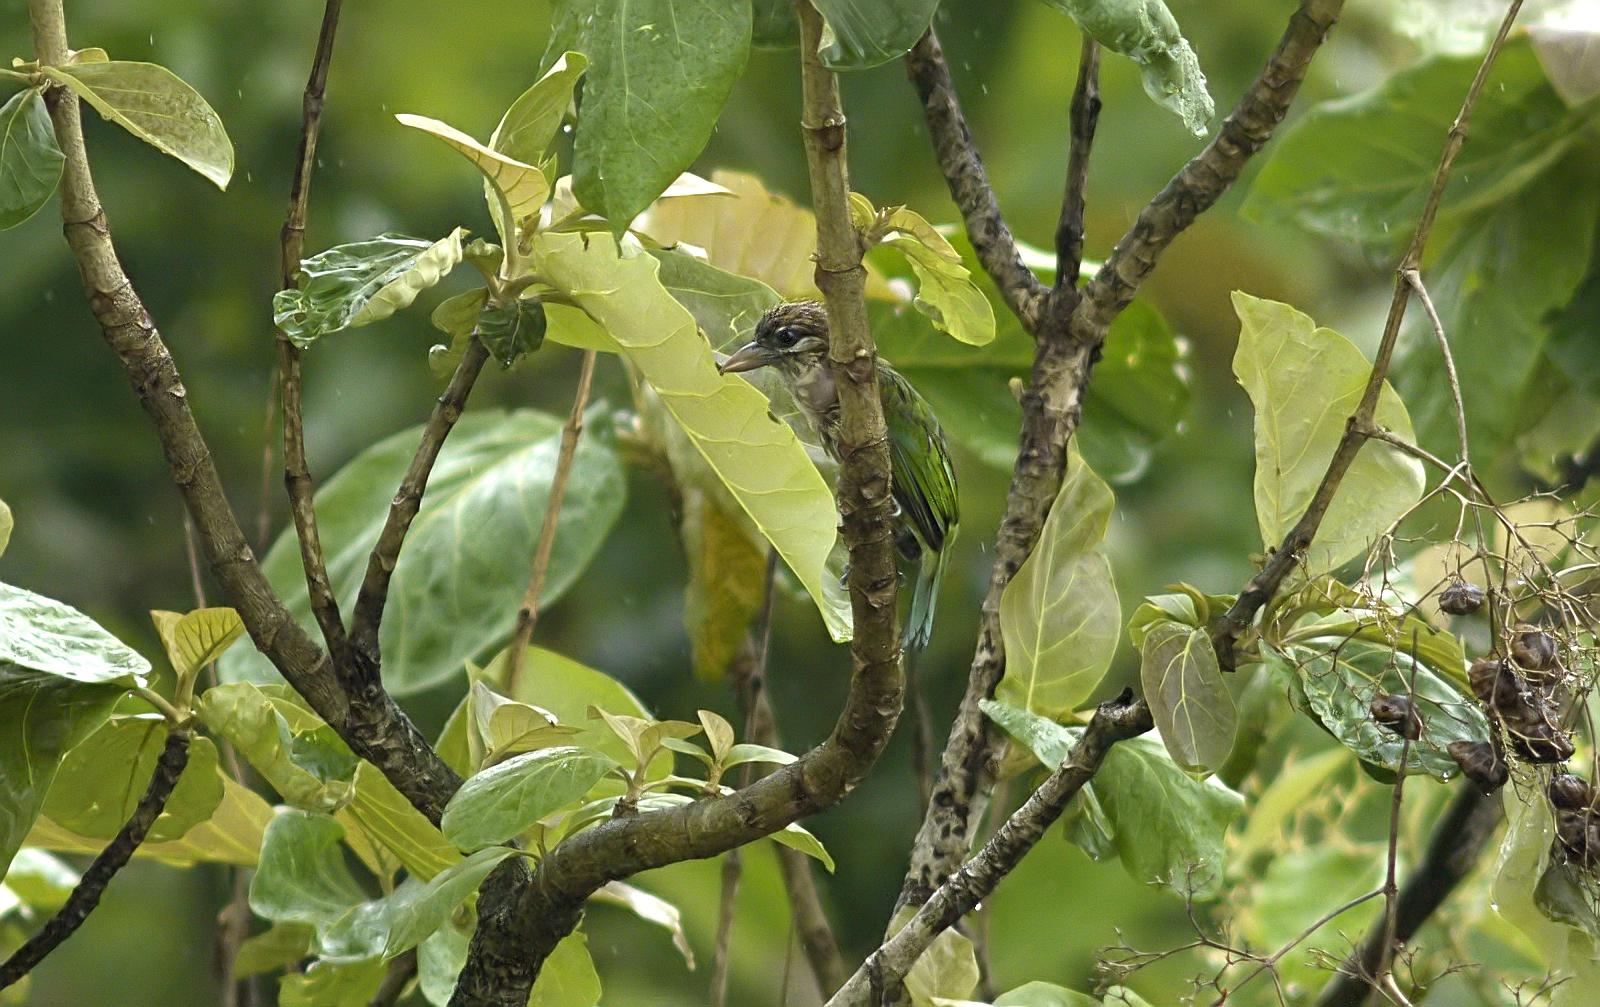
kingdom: Animalia
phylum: Chordata
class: Aves
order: Piciformes
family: Megalaimidae
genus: Psilopogon
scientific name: Psilopogon viridis
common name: White-cheeked barbet
